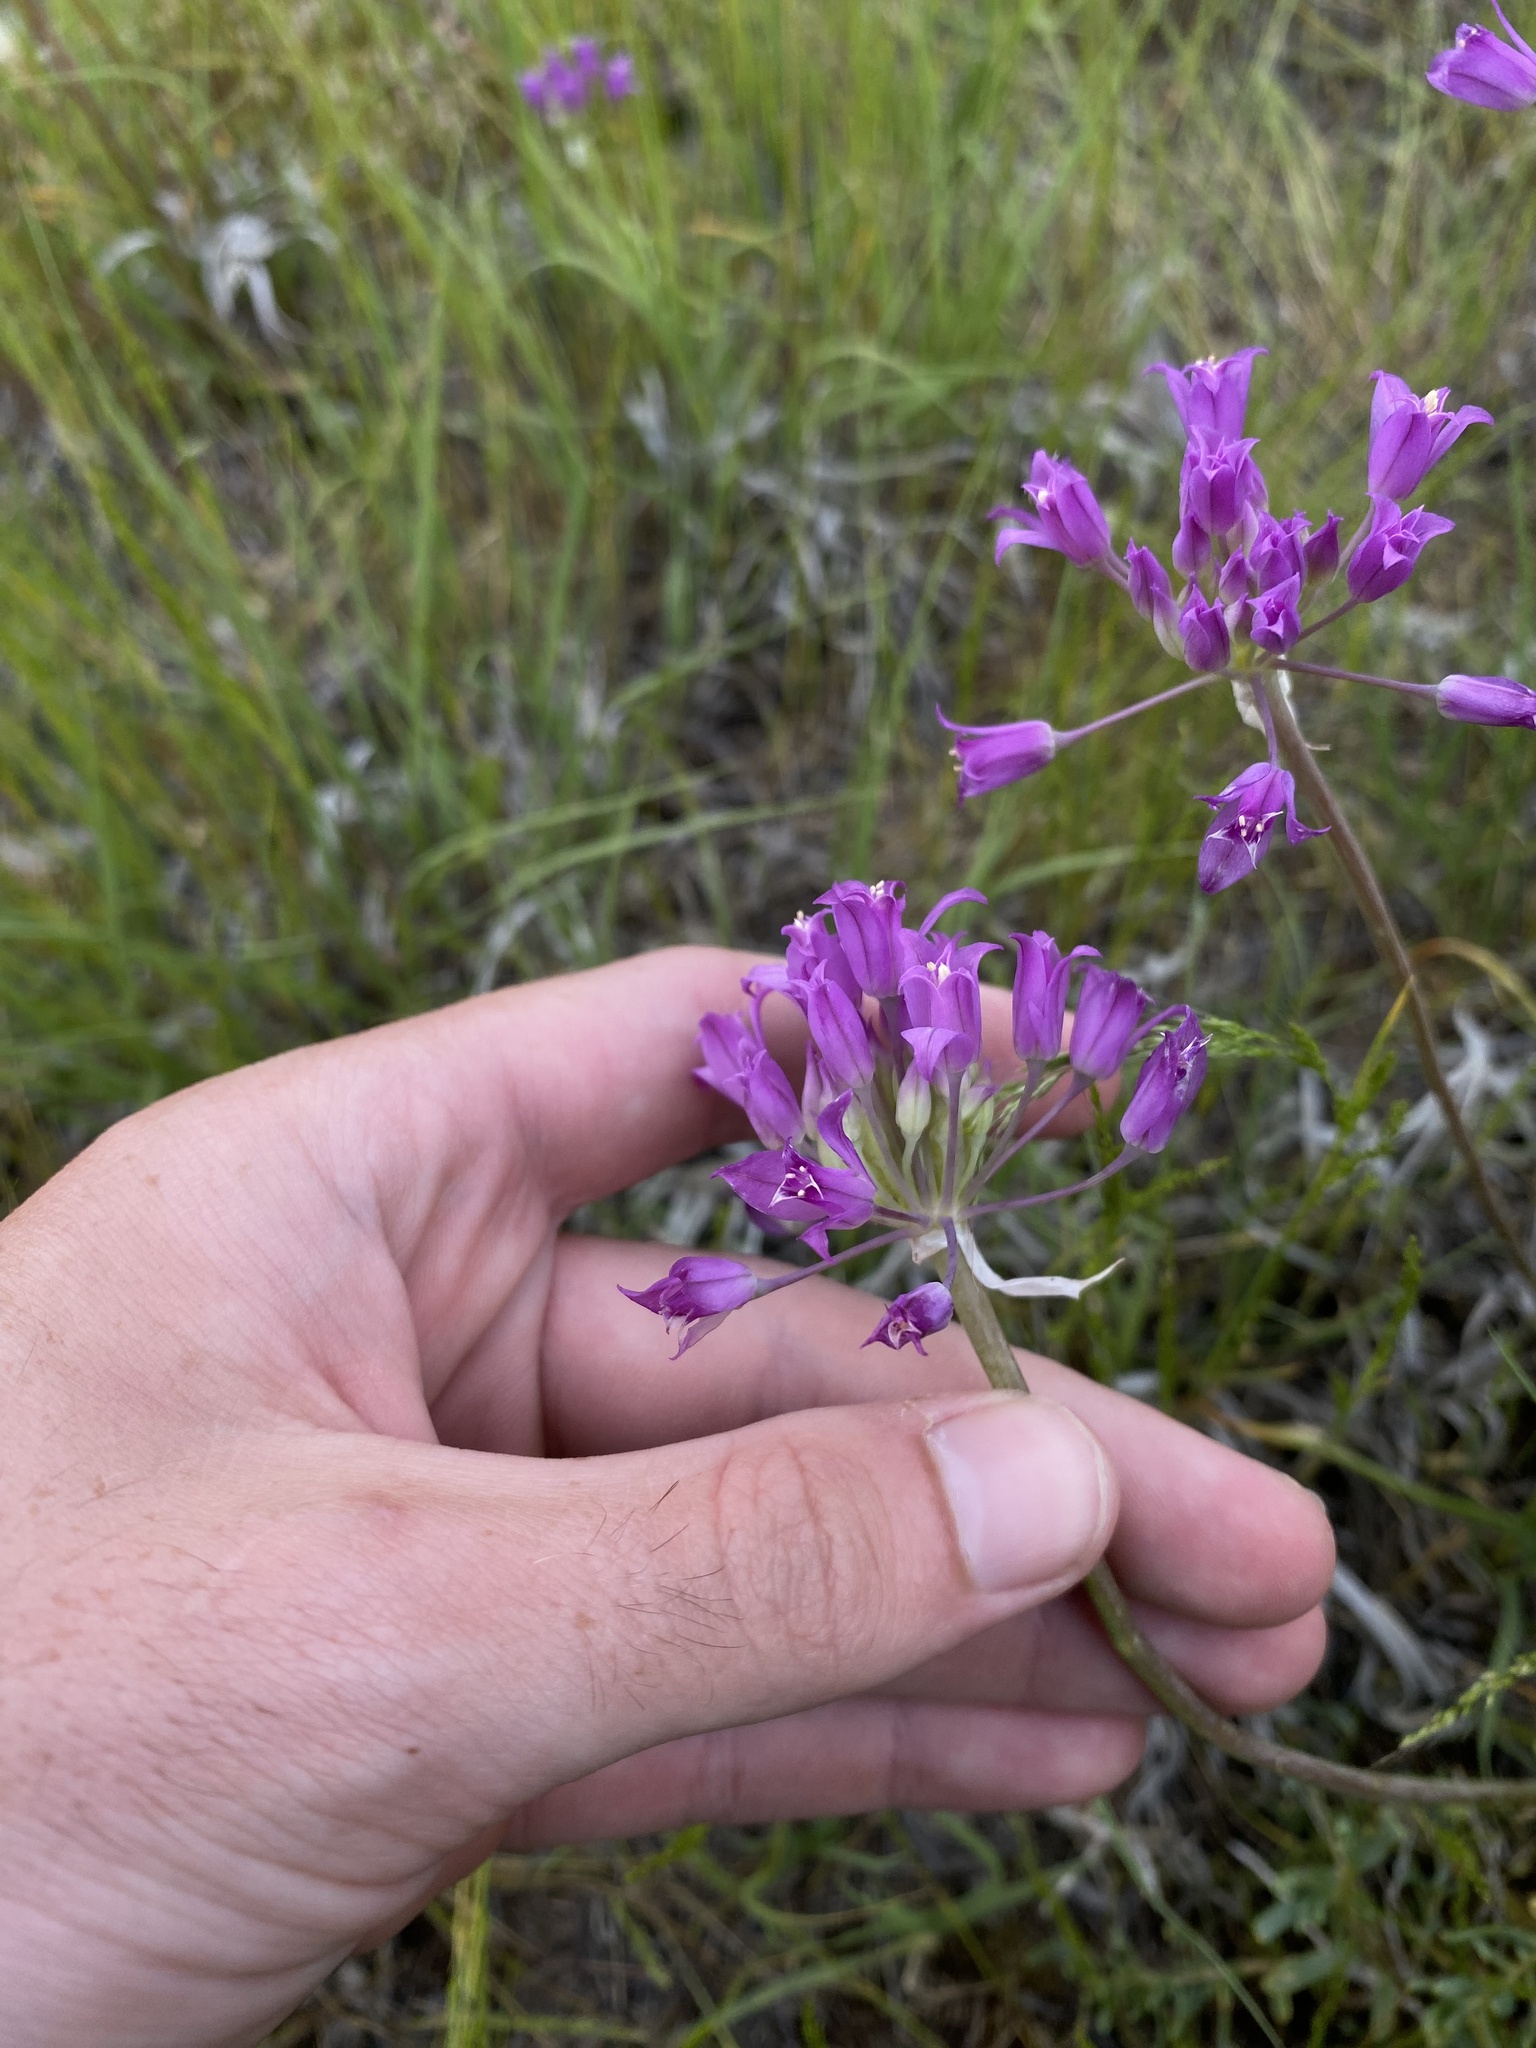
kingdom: Plantae
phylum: Tracheophyta
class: Liliopsida
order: Asparagales
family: Amaryllidaceae
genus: Allium
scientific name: Allium acuminatum
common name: Hooker's onion
